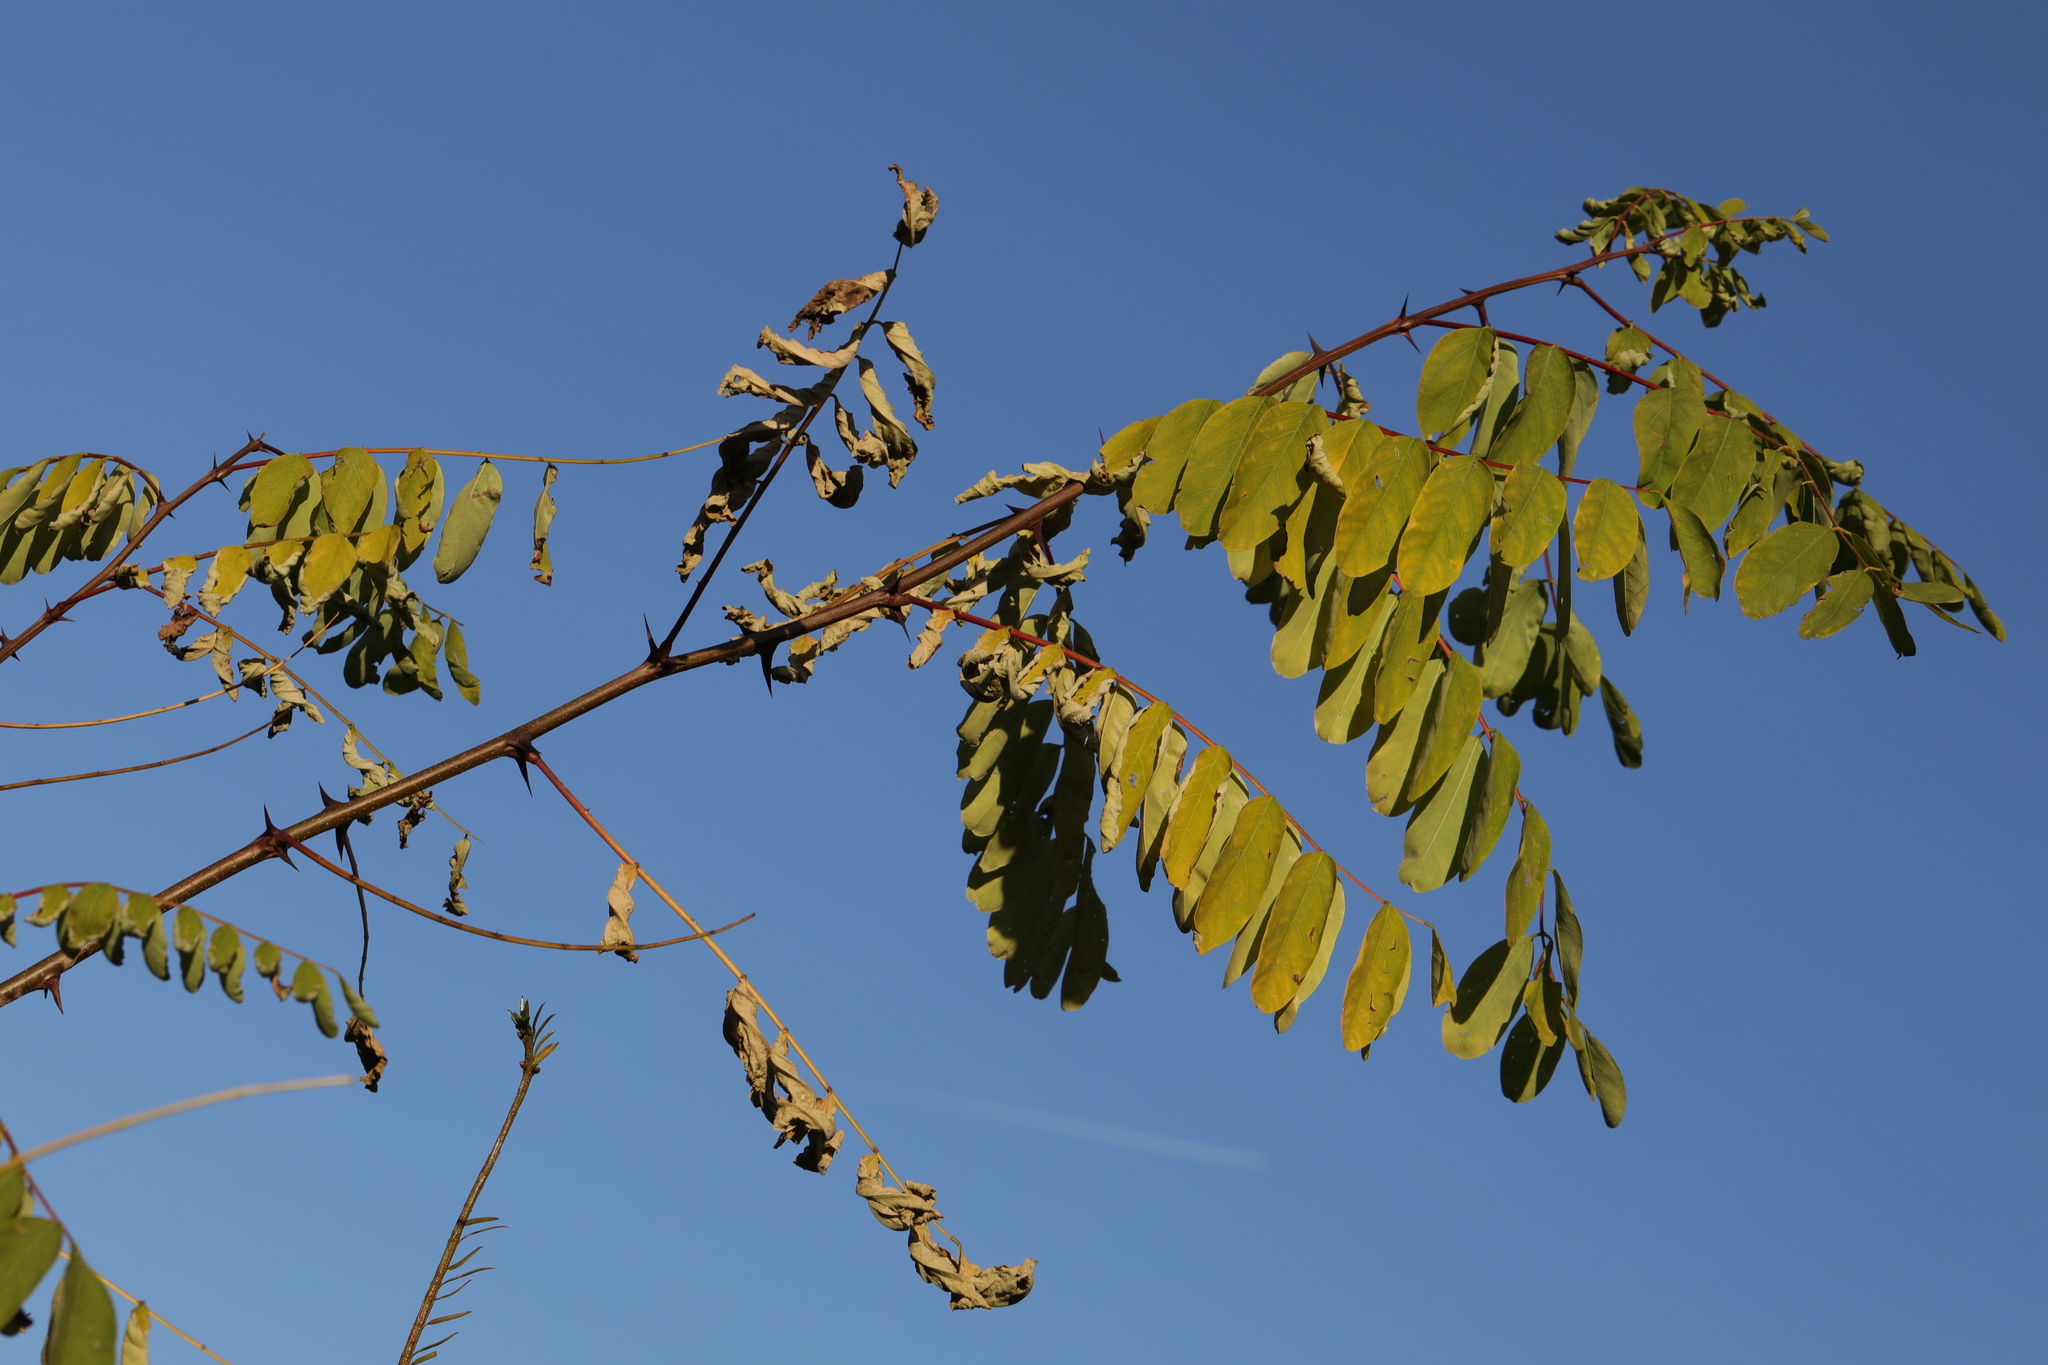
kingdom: Plantae
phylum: Tracheophyta
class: Magnoliopsida
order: Fabales
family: Fabaceae
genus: Robinia
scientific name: Robinia pseudoacacia
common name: Black locust
